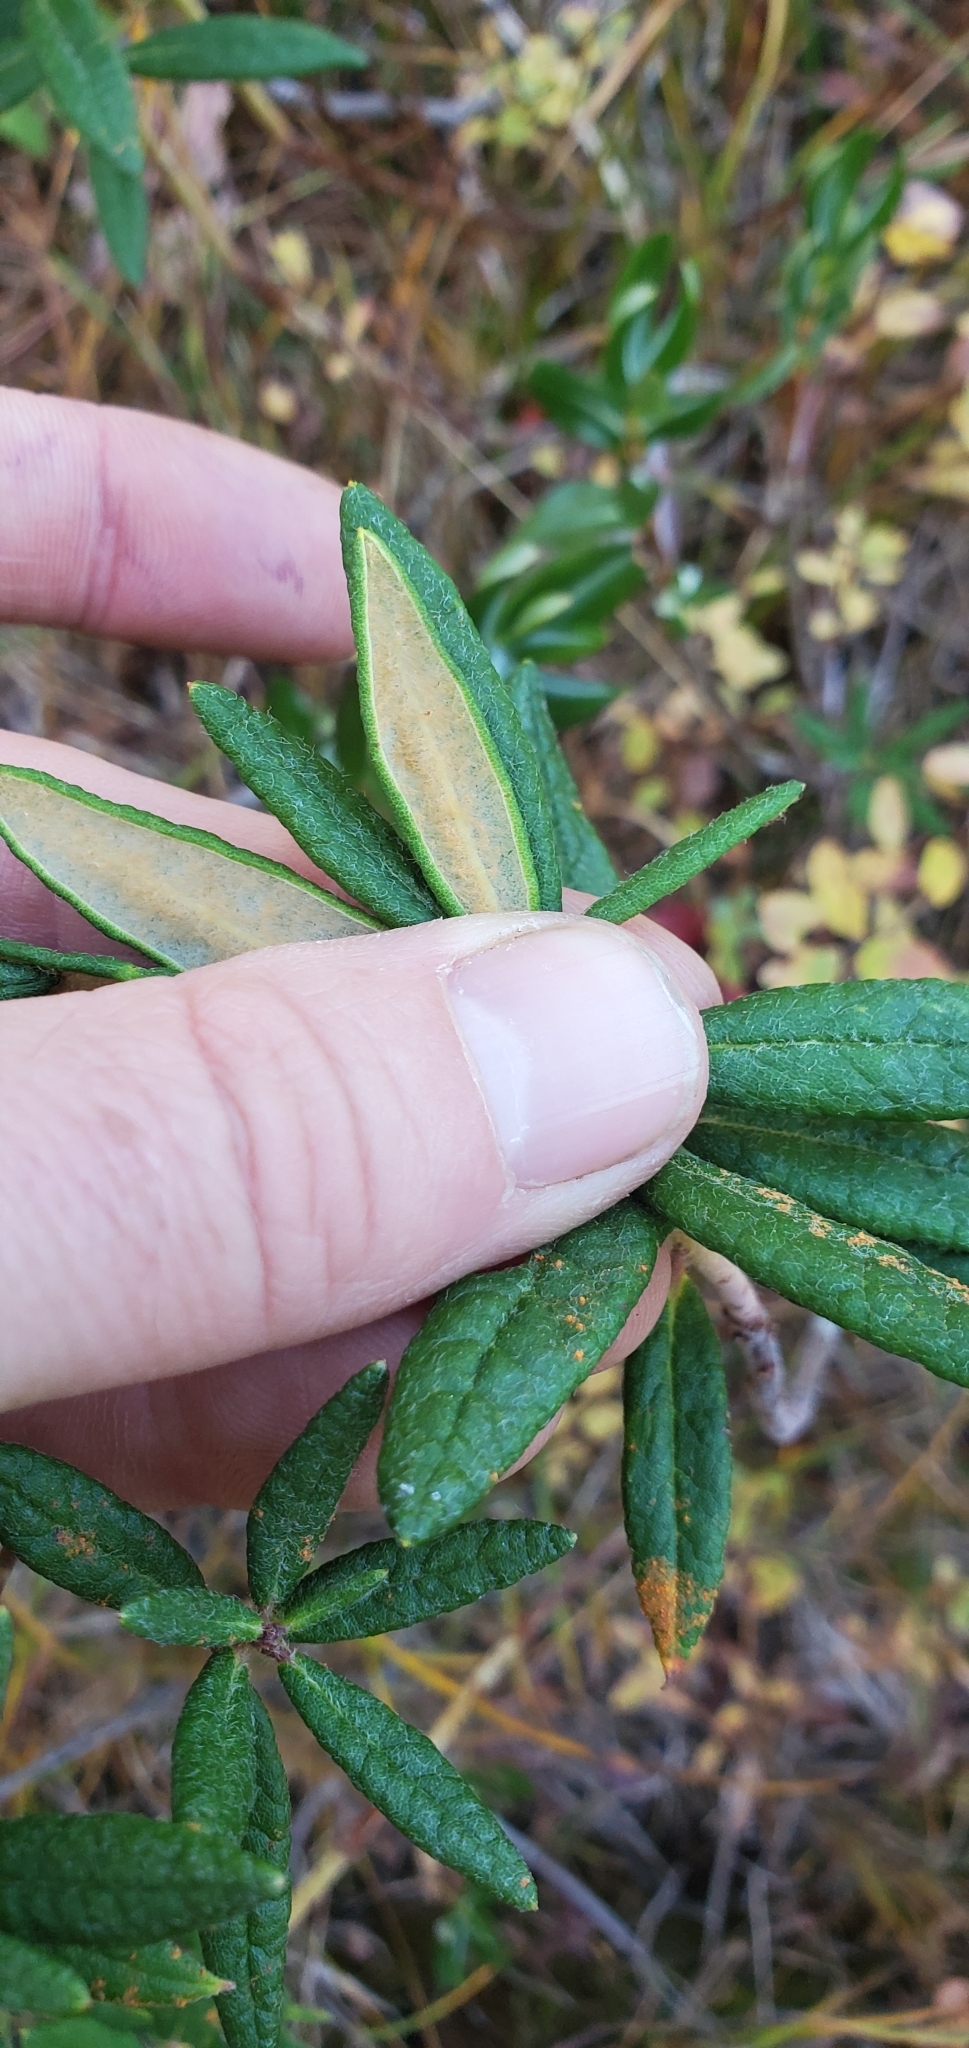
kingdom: Plantae
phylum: Tracheophyta
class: Magnoliopsida
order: Ericales
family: Ericaceae
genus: Rhododendron
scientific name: Rhododendron groenlandicum
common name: Bog labrador tea
